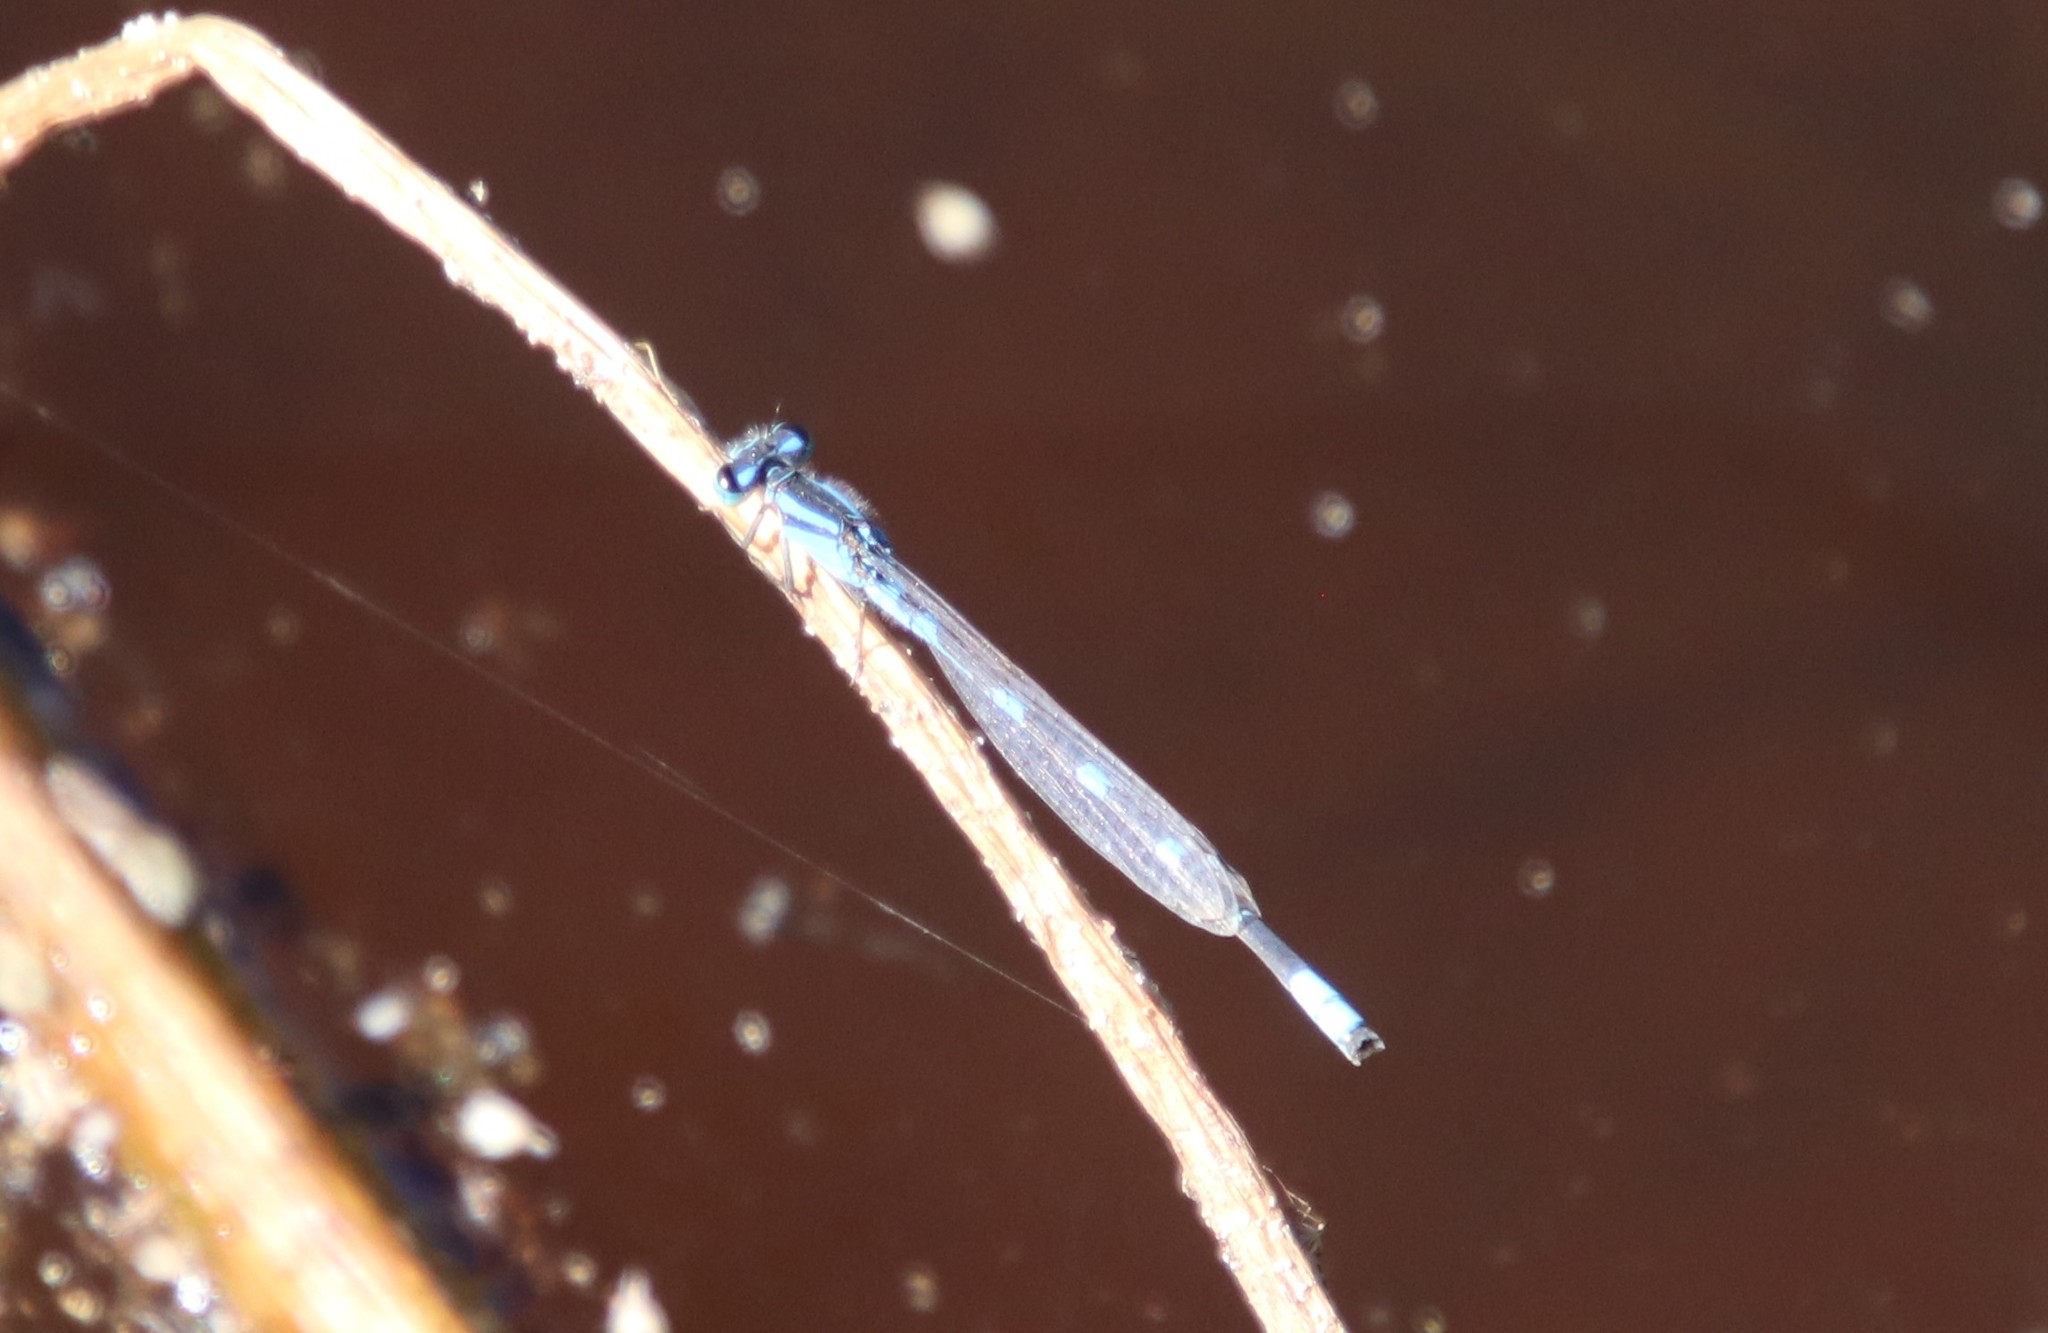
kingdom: Animalia
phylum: Arthropoda
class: Insecta
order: Odonata
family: Coenagrionidae
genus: Enallagma
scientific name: Enallagma carunculatum
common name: Tule bluet
